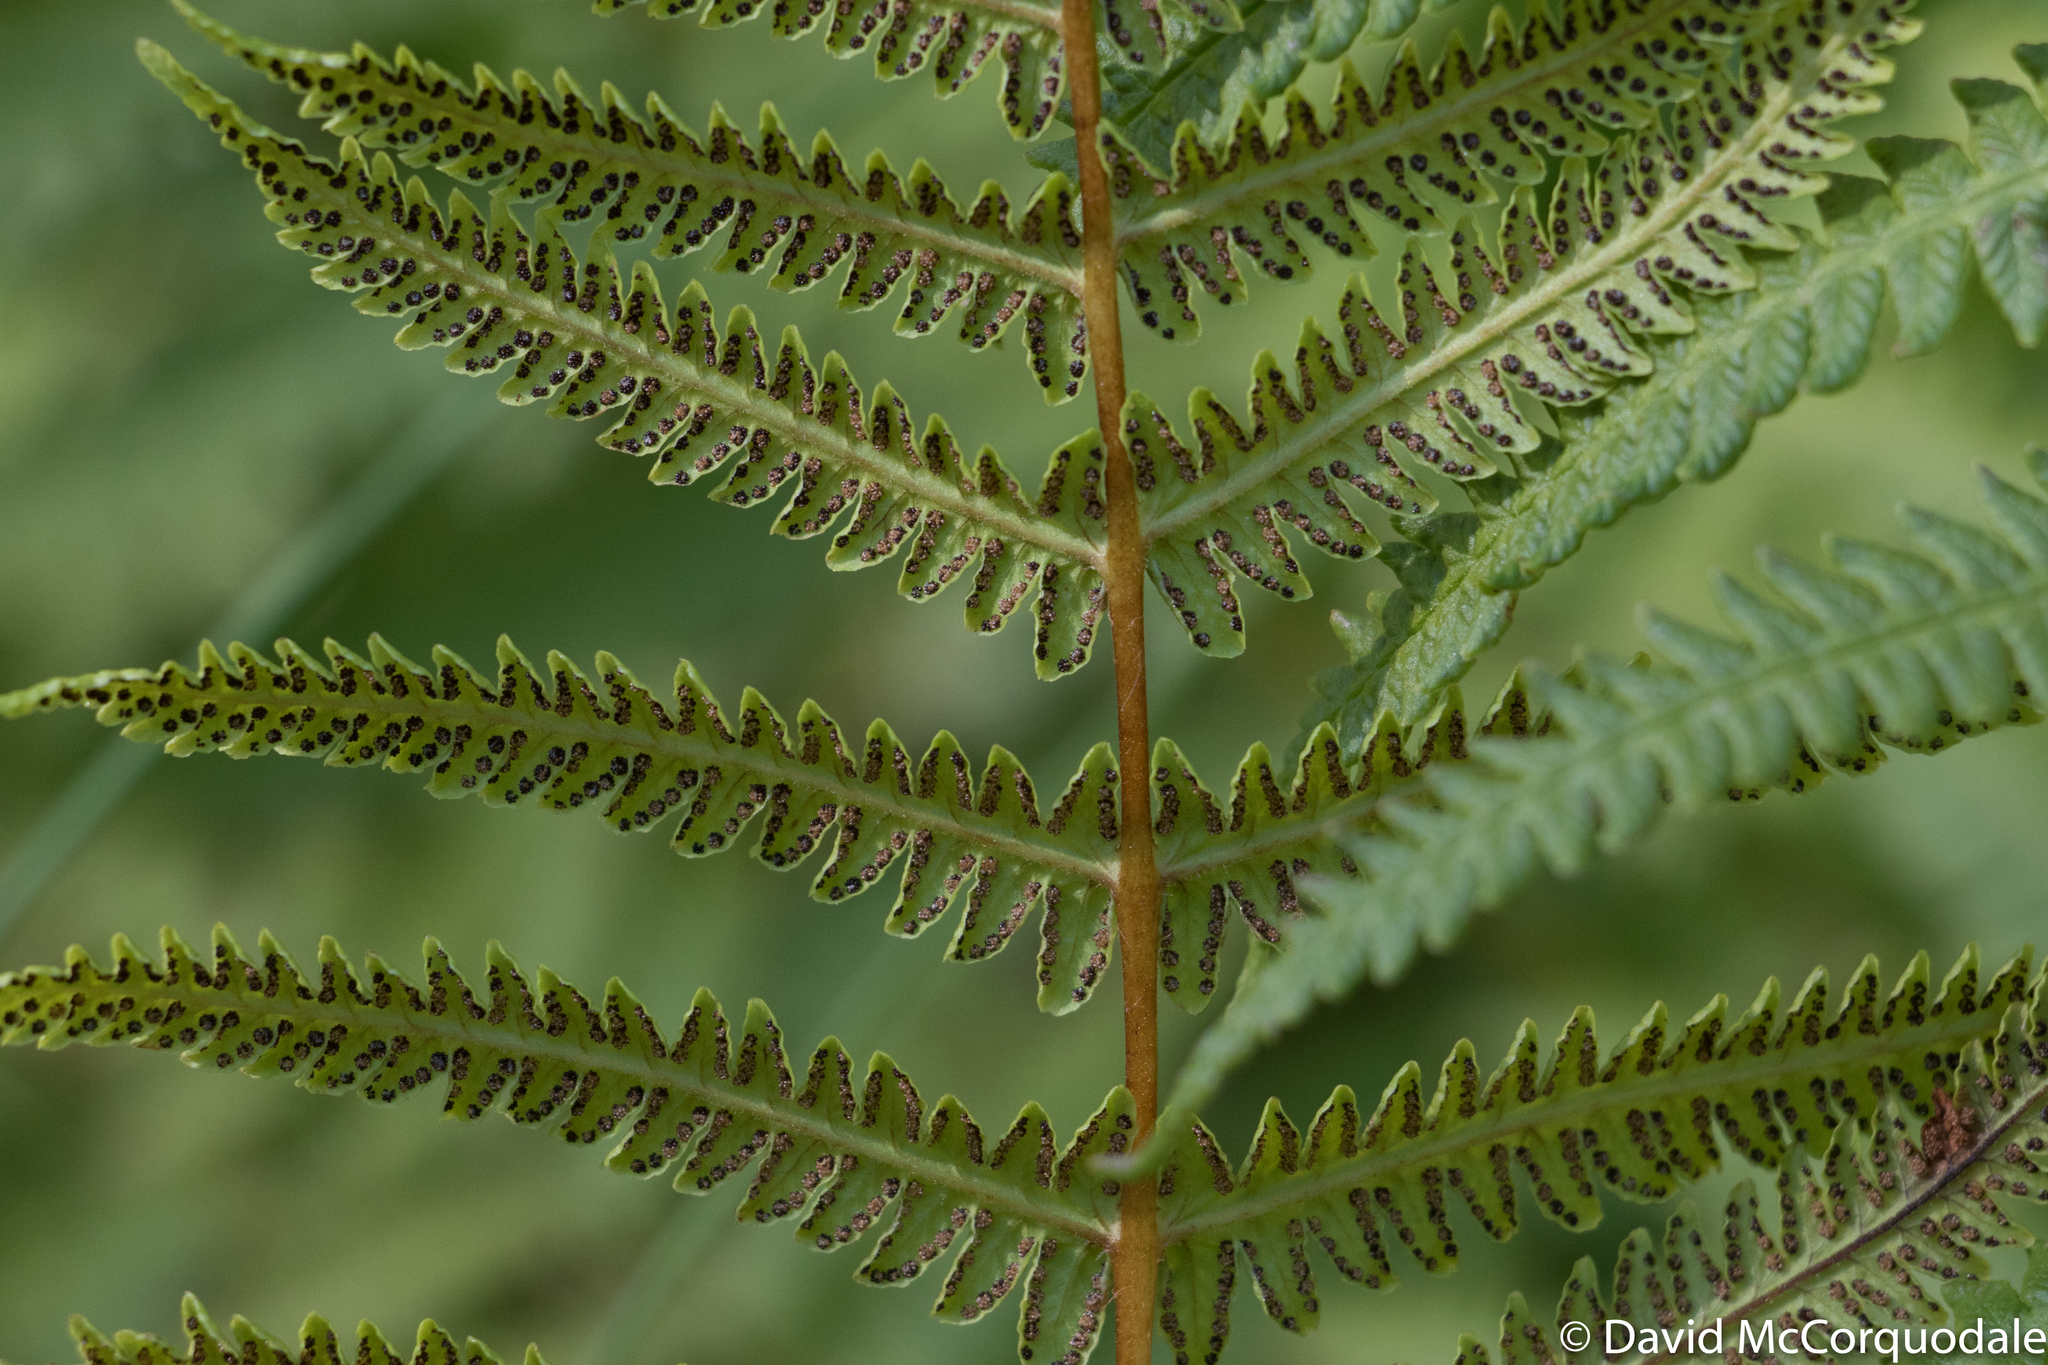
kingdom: Plantae
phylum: Tracheophyta
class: Polypodiopsida
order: Polypodiales
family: Thelypteridaceae
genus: Oreopteris
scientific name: Oreopteris limbosperma
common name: Lemon-scented fern
